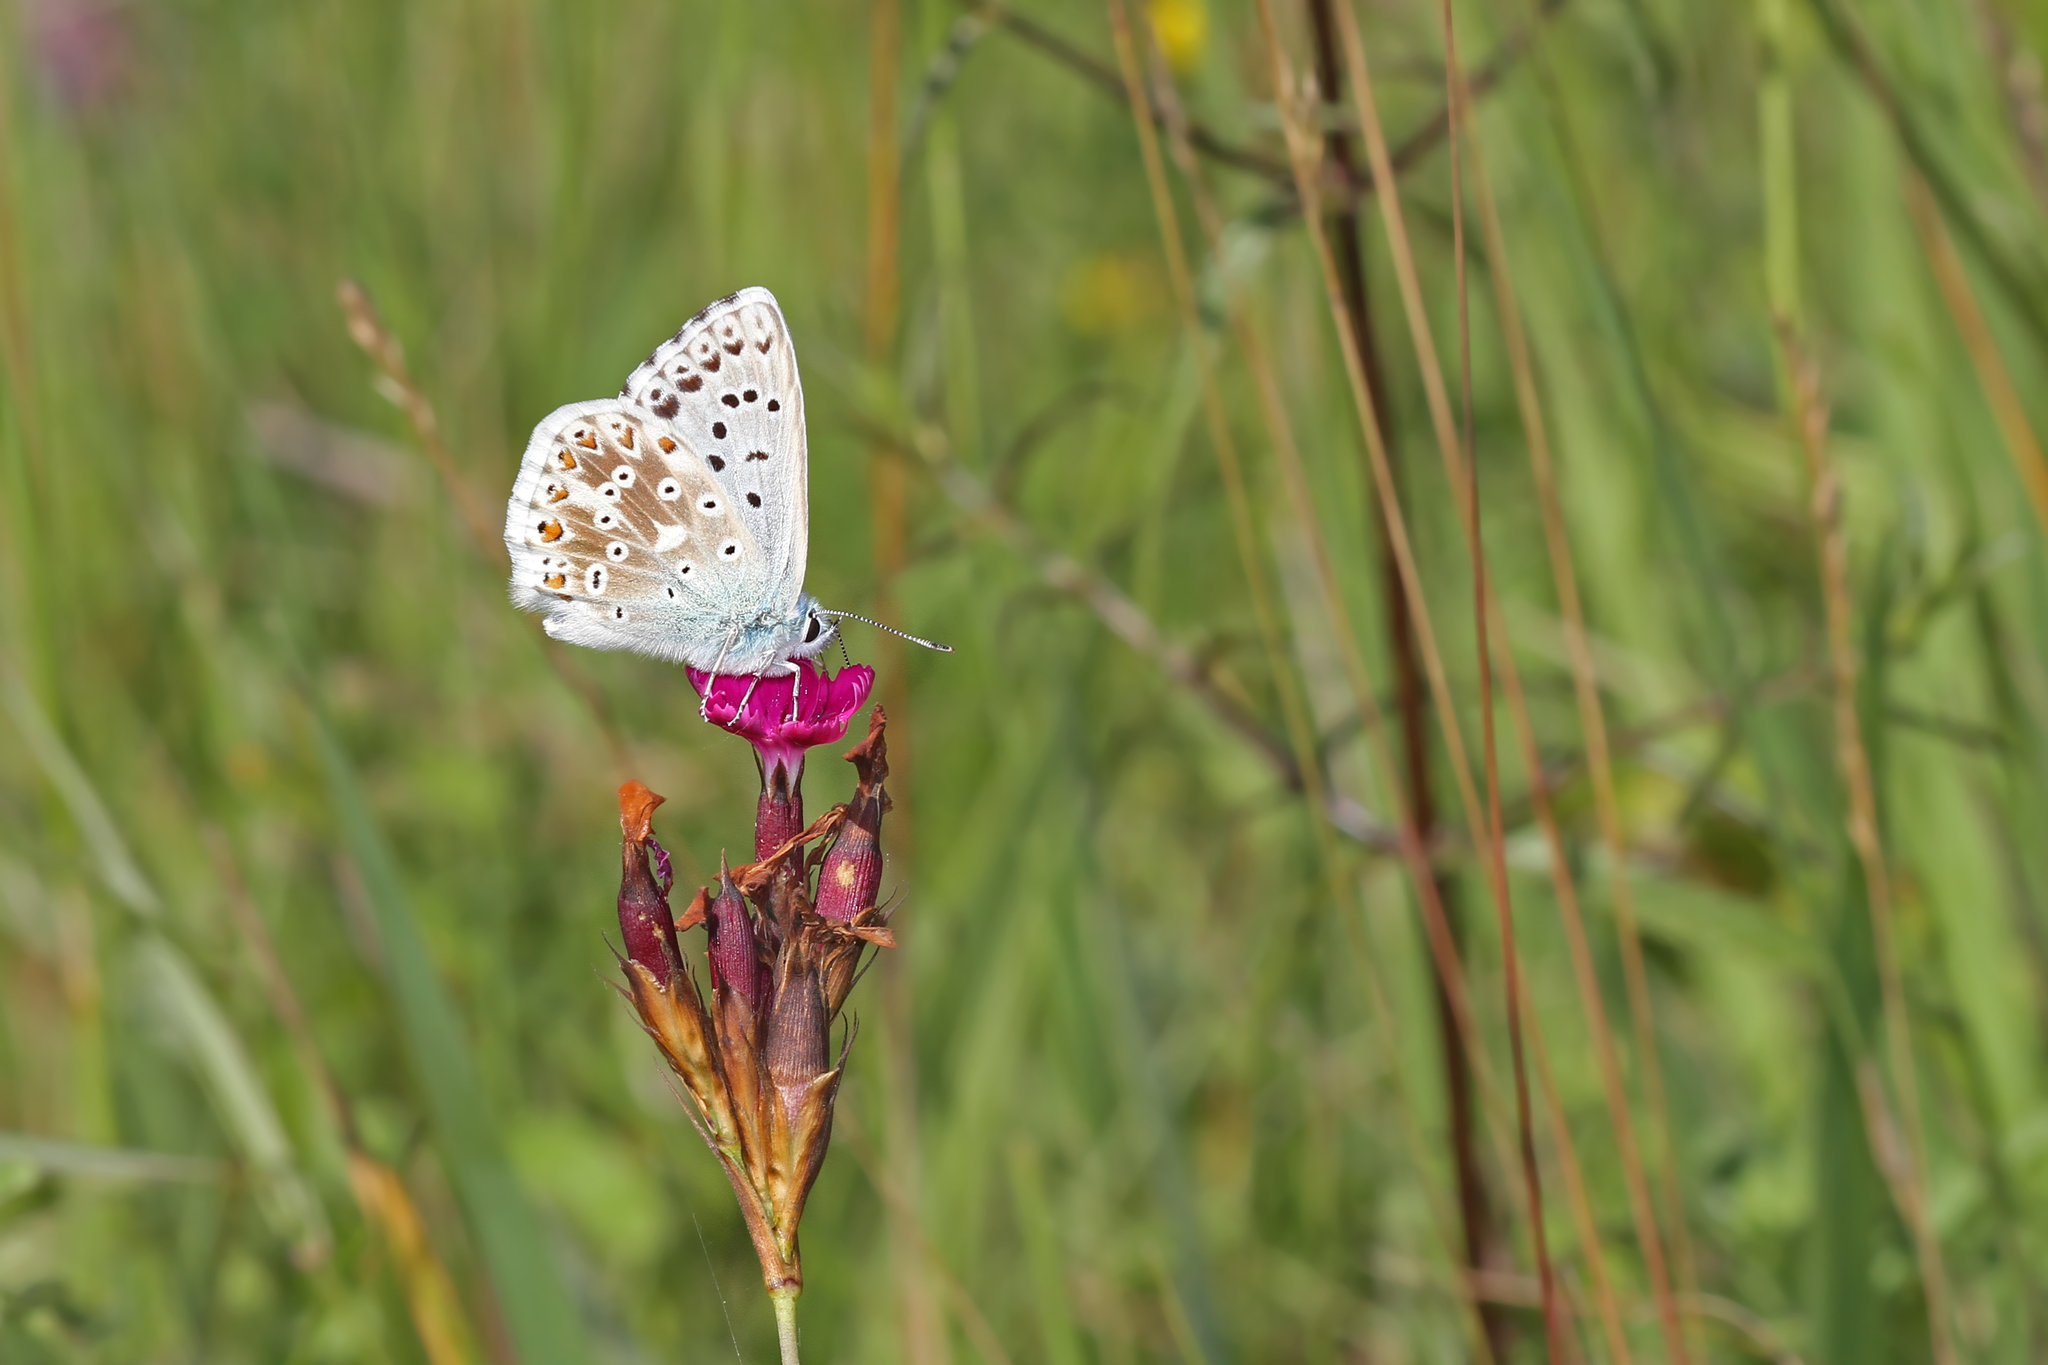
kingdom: Animalia
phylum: Arthropoda
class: Insecta
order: Lepidoptera
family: Lycaenidae
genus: Lysandra
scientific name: Lysandra coridon
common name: Chalkhill blue
